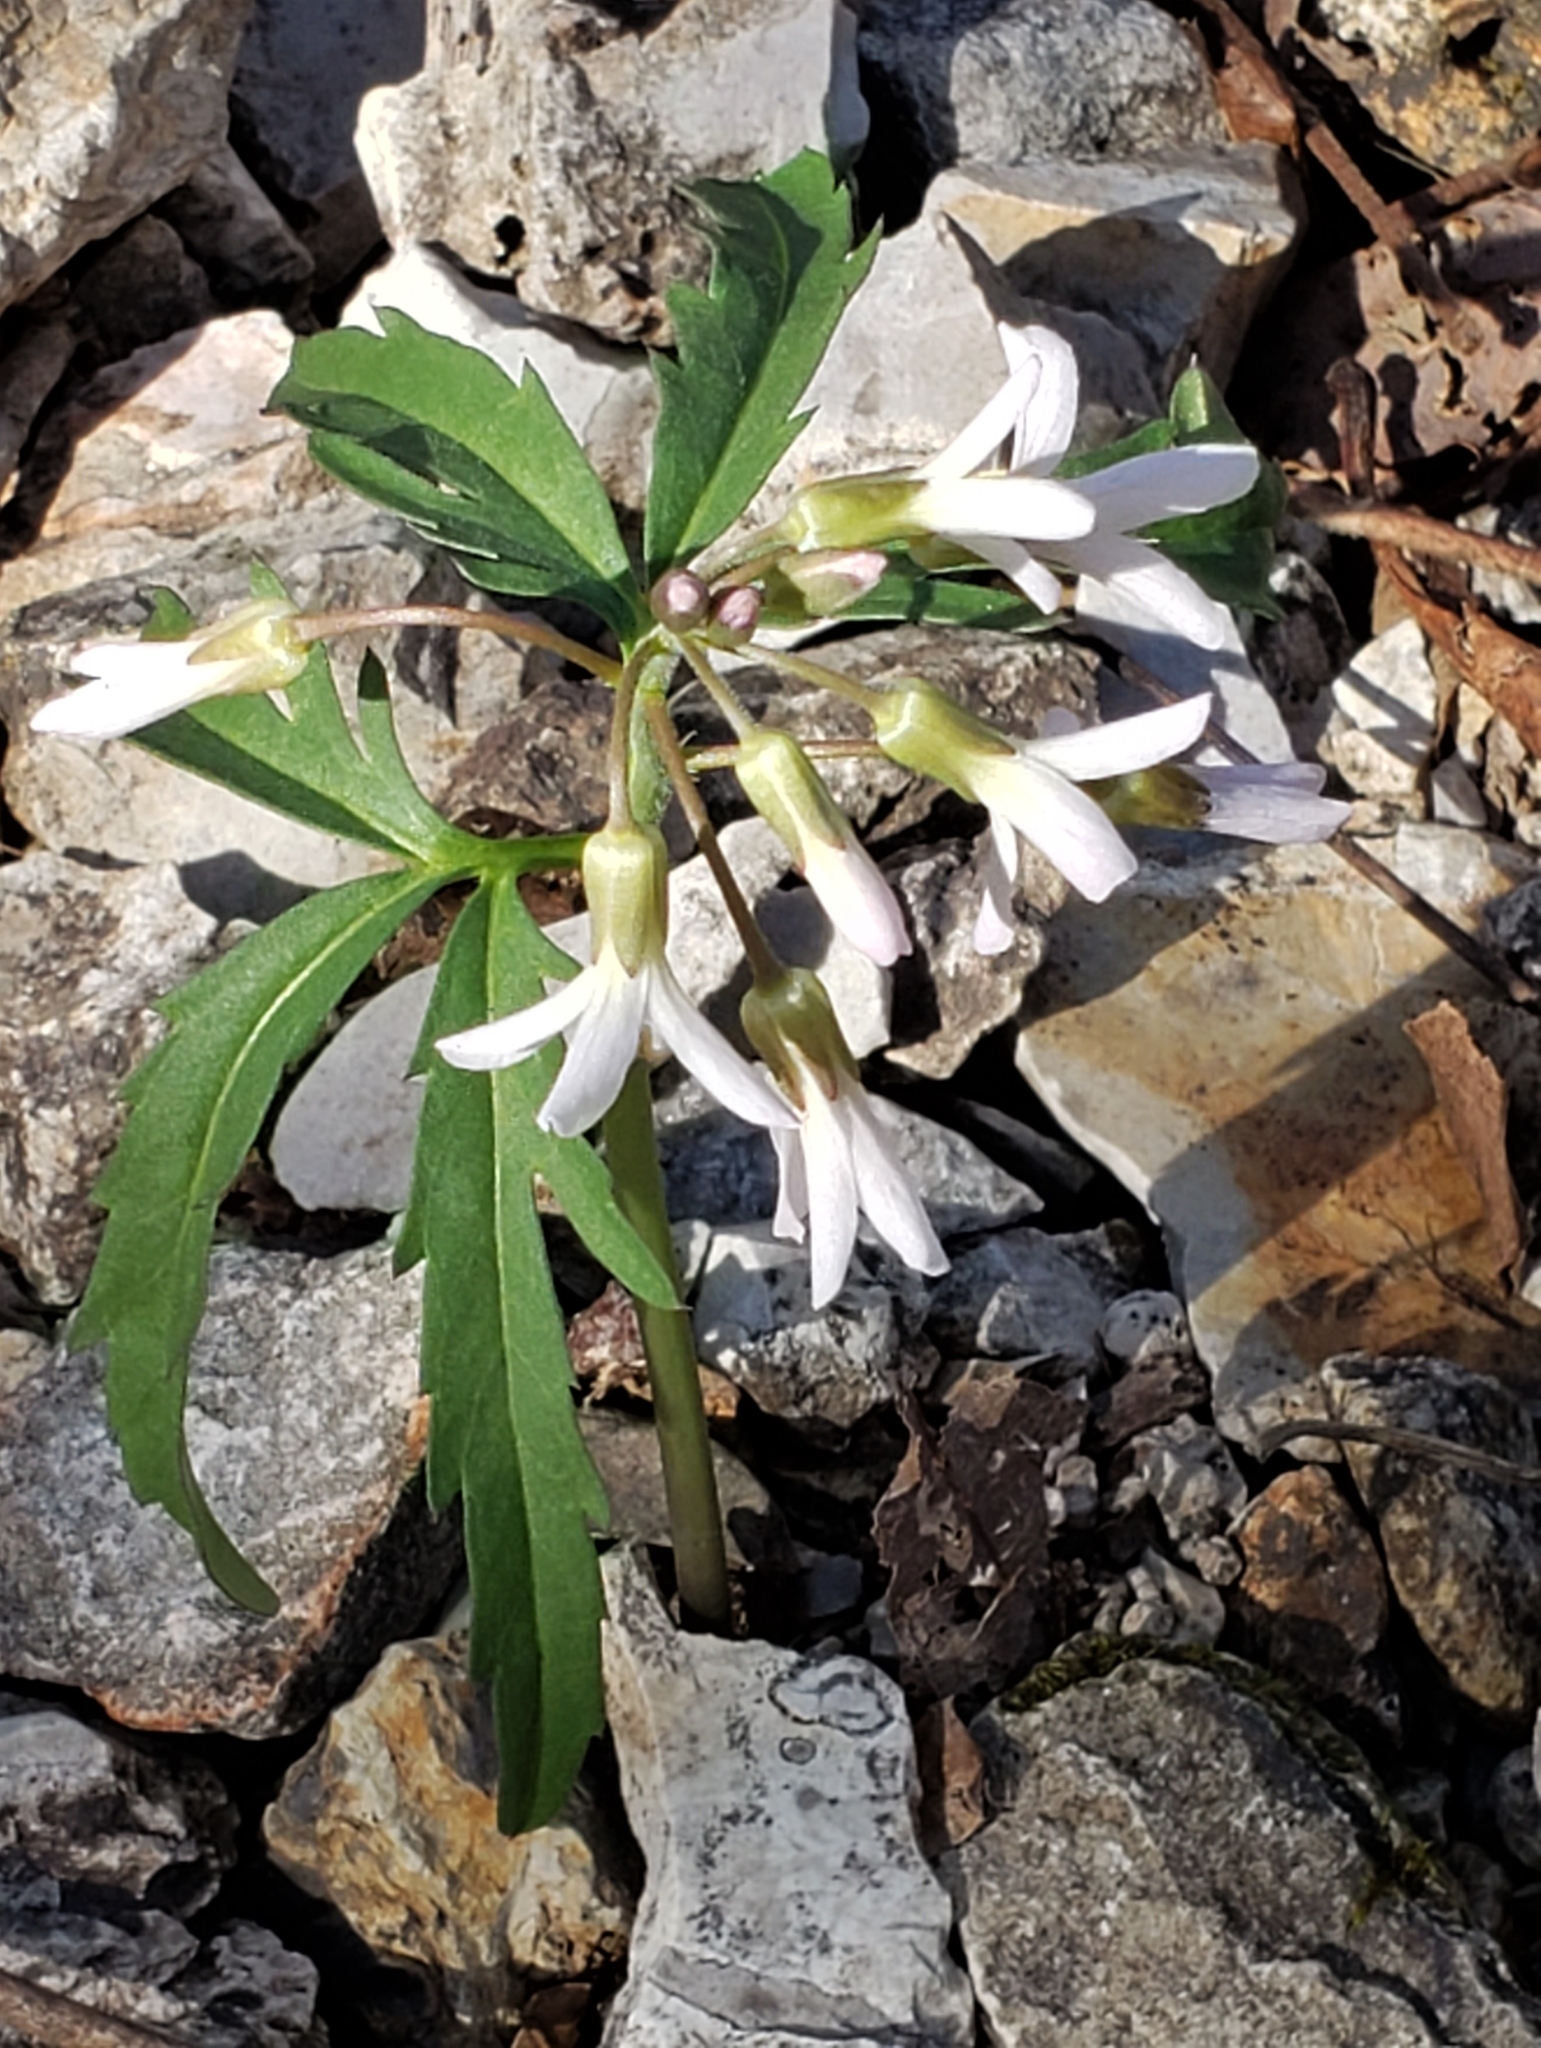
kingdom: Plantae
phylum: Tracheophyta
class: Magnoliopsida
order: Brassicales
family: Brassicaceae
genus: Cardamine
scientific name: Cardamine concatenata
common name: Cut-leaf toothcup
